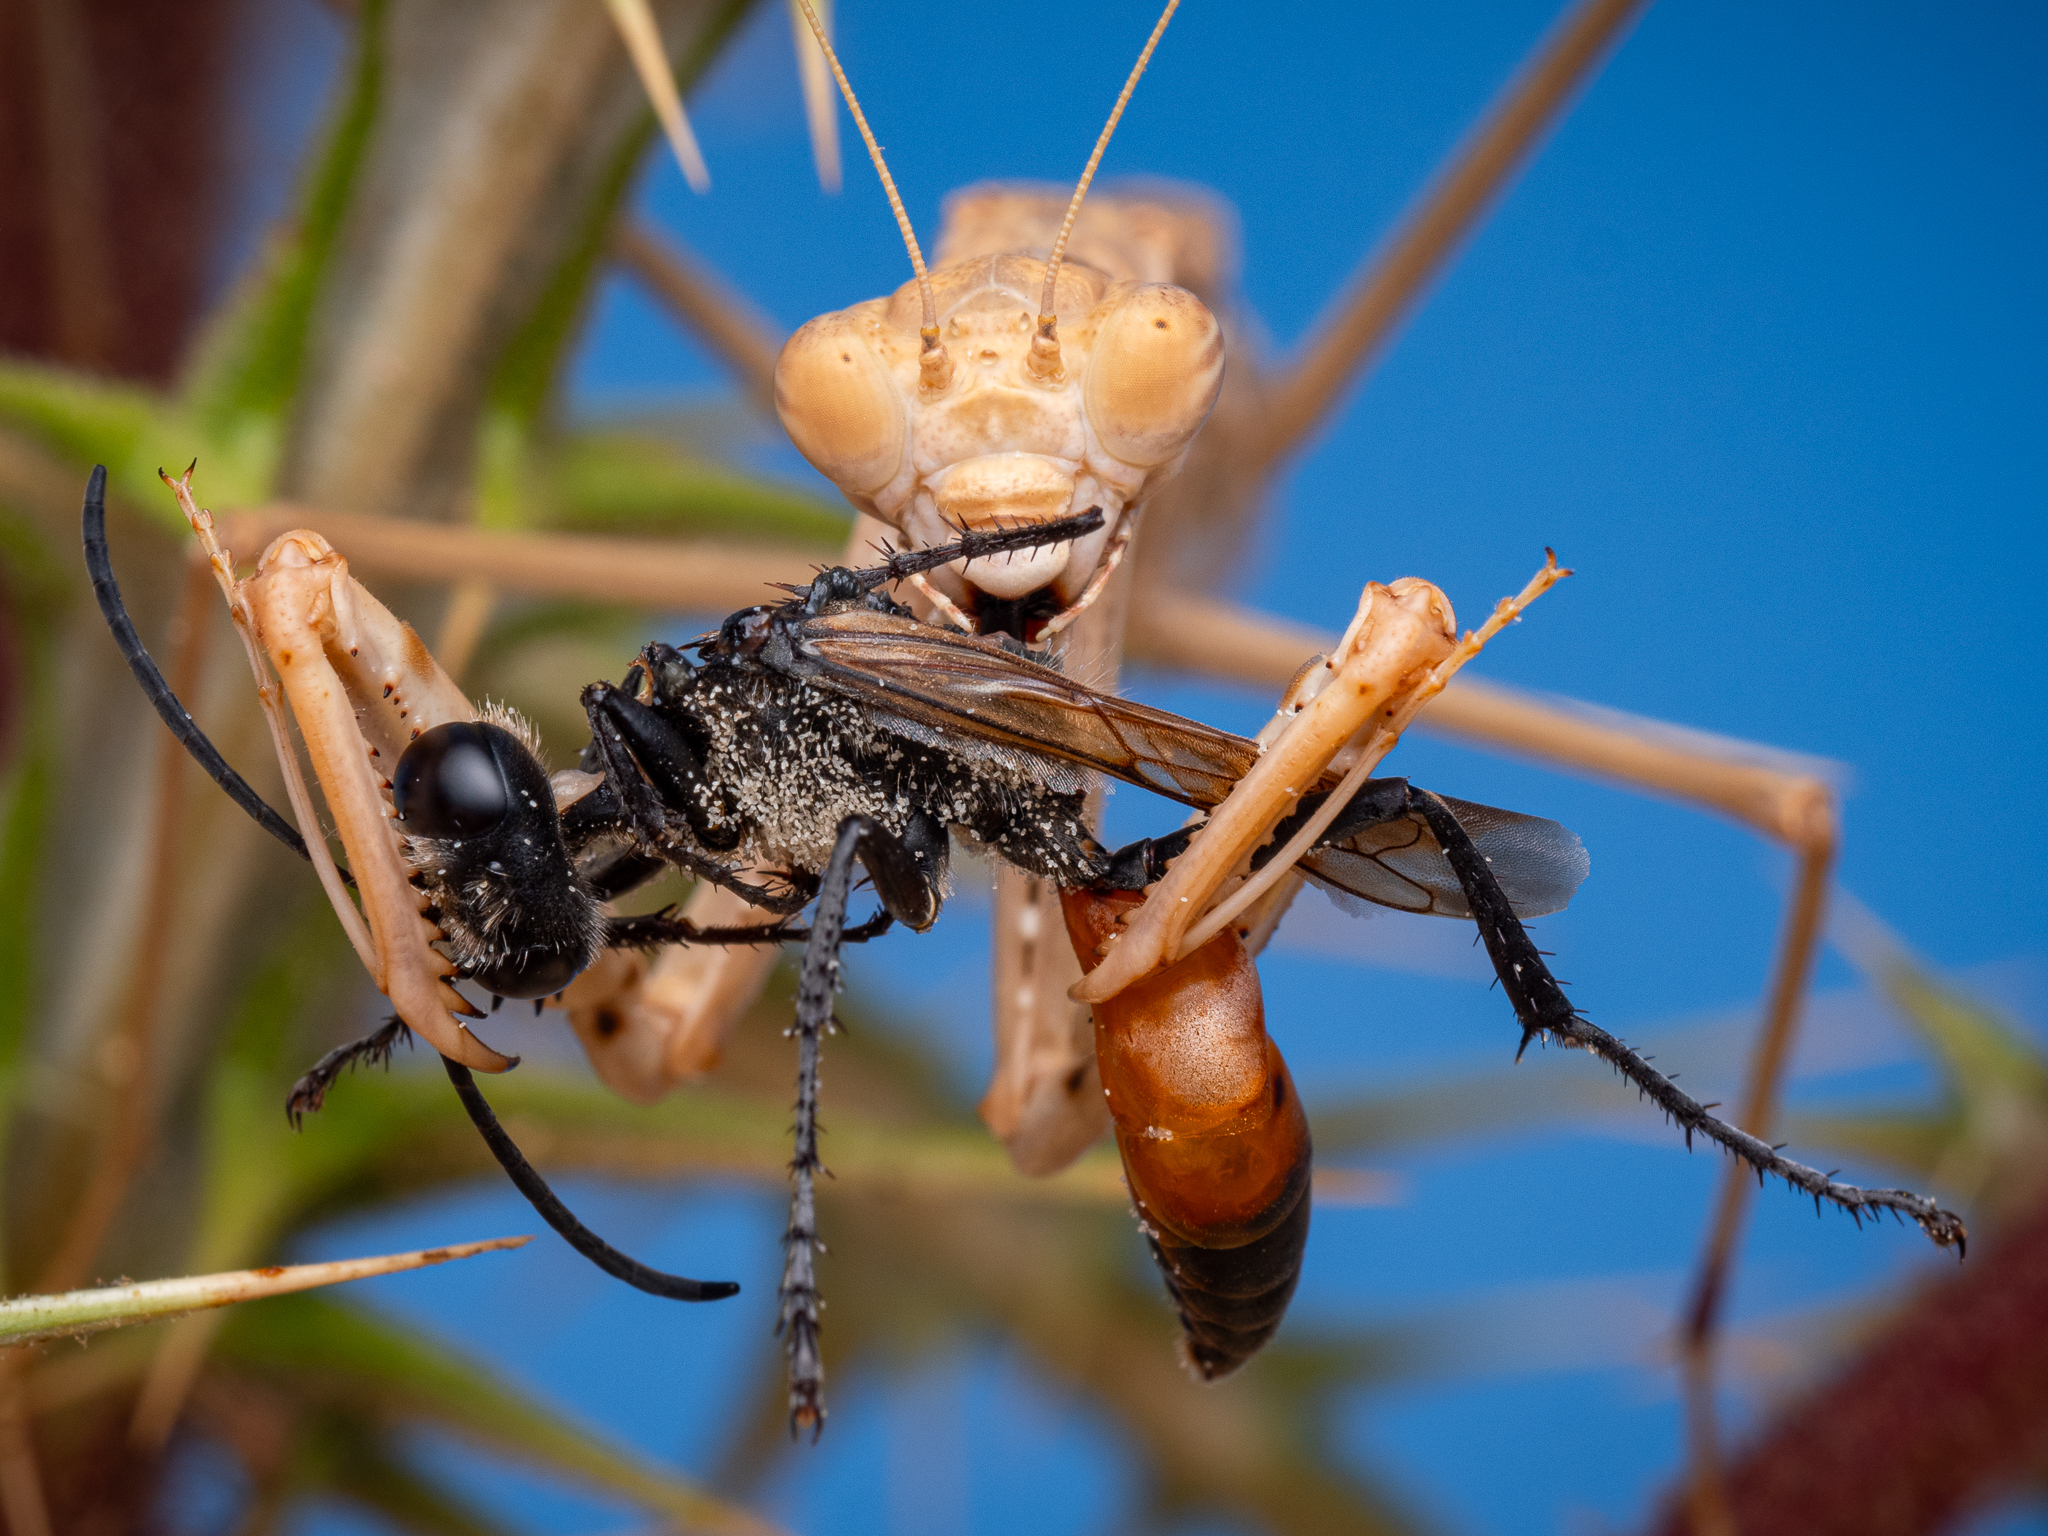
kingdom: Animalia
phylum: Arthropoda
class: Insecta
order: Mantodea
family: Rivetinidae
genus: Rivetina
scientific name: Rivetina balcanica
